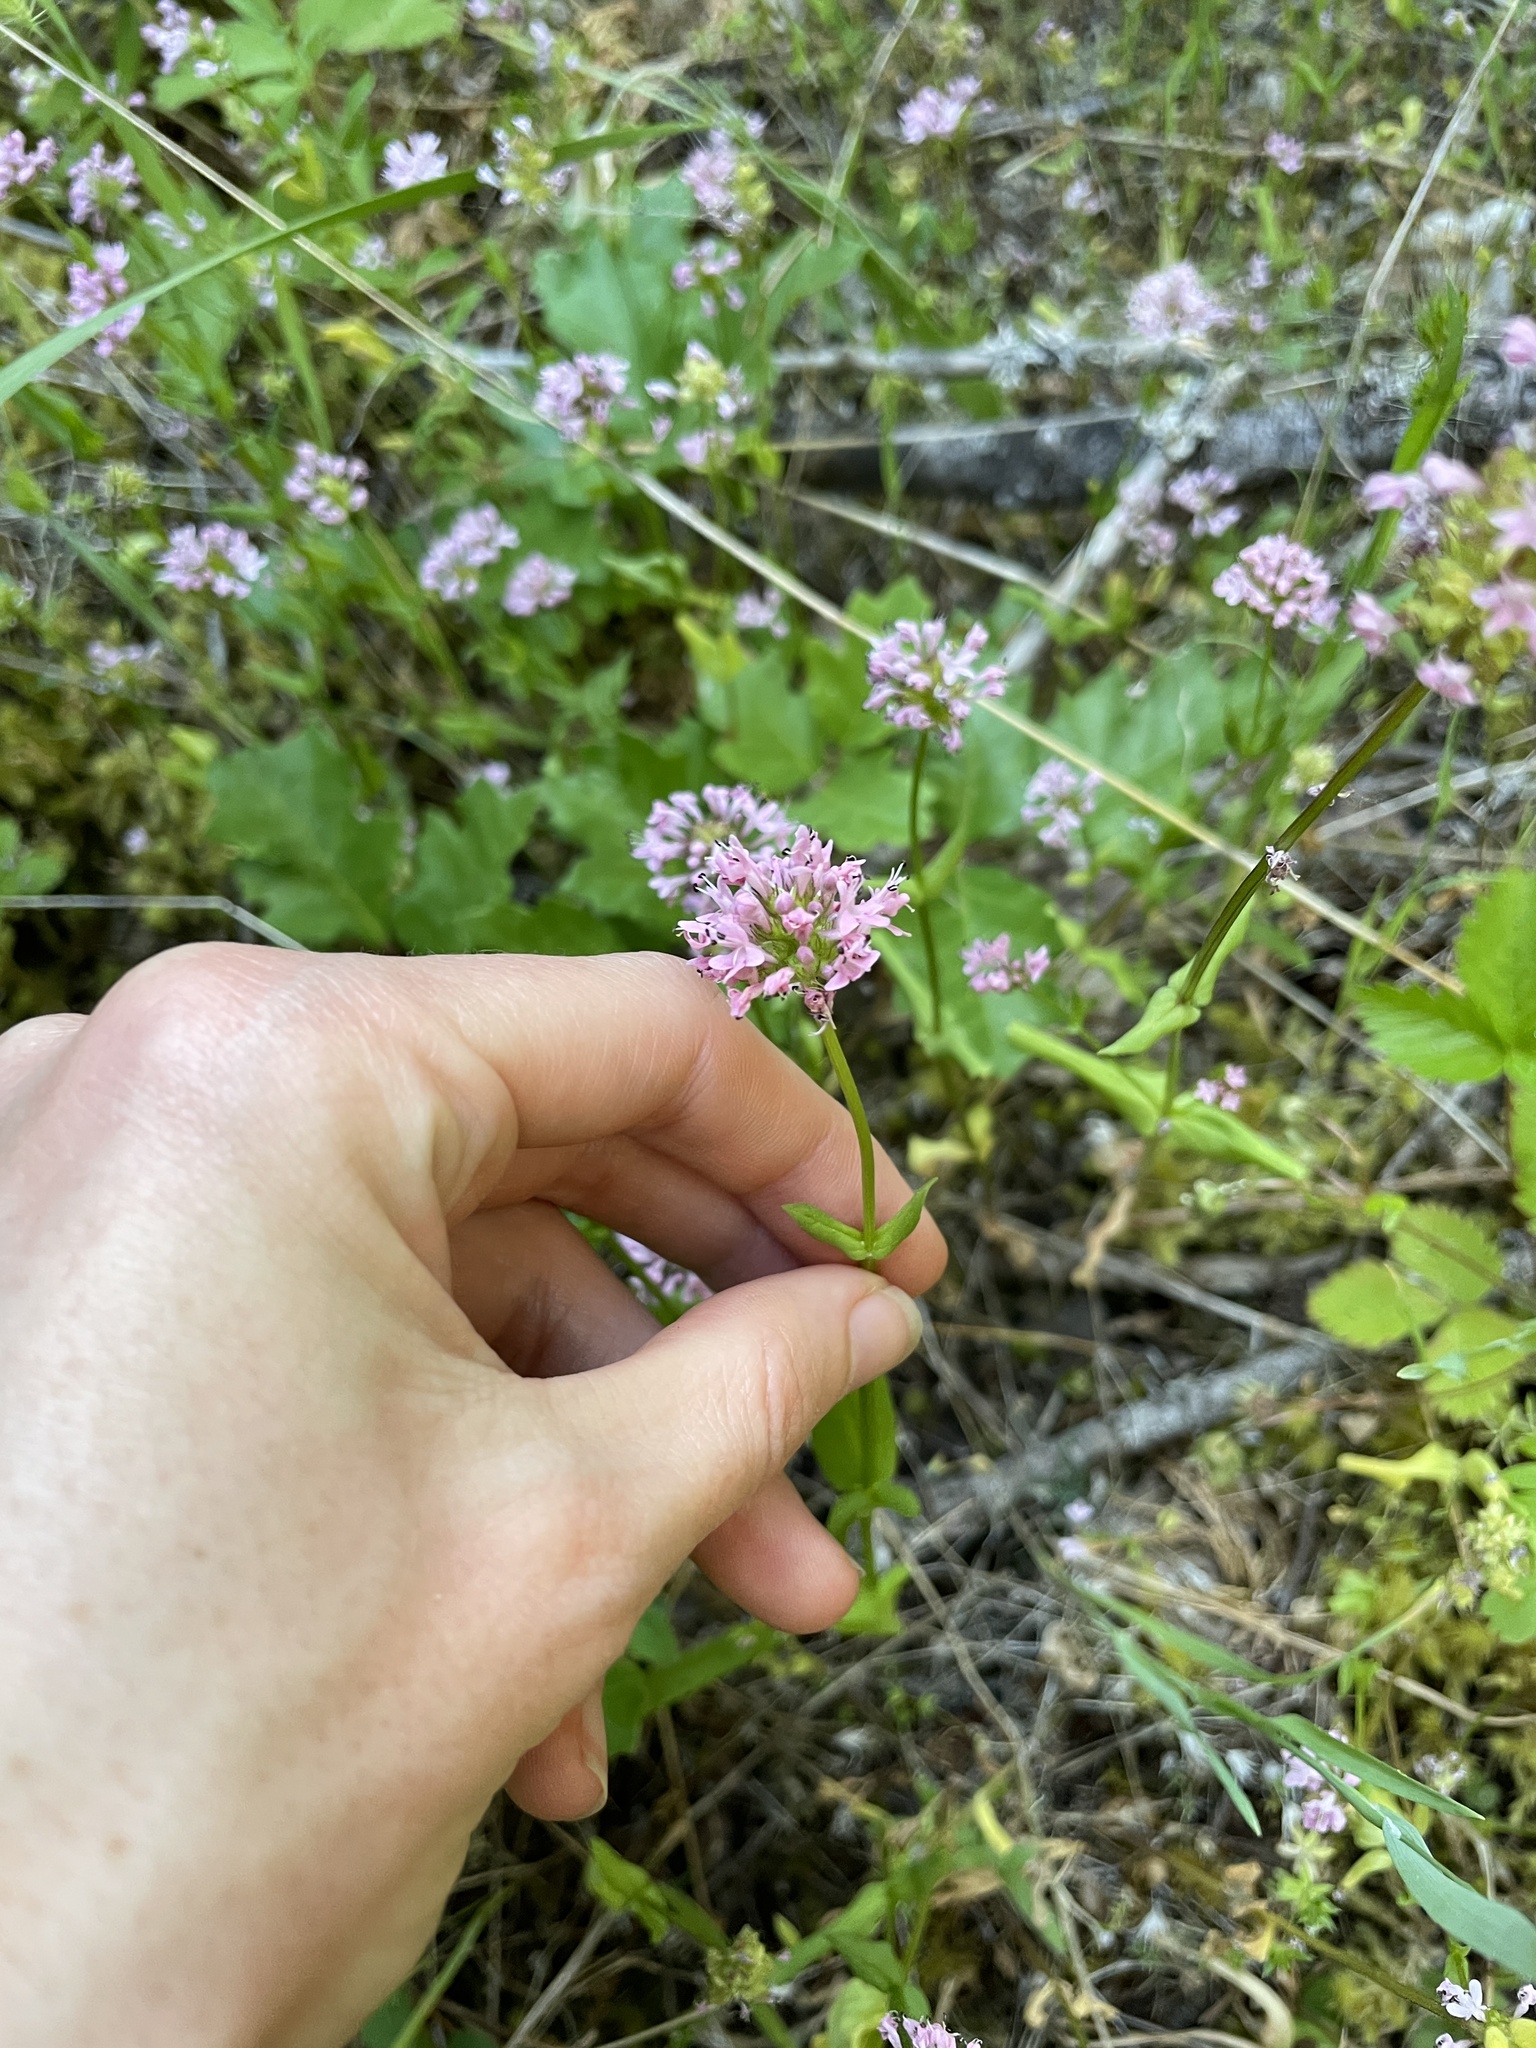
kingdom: Plantae
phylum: Tracheophyta
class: Magnoliopsida
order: Dipsacales
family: Caprifoliaceae
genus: Plectritis
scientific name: Plectritis congesta
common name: Pink plectritis
